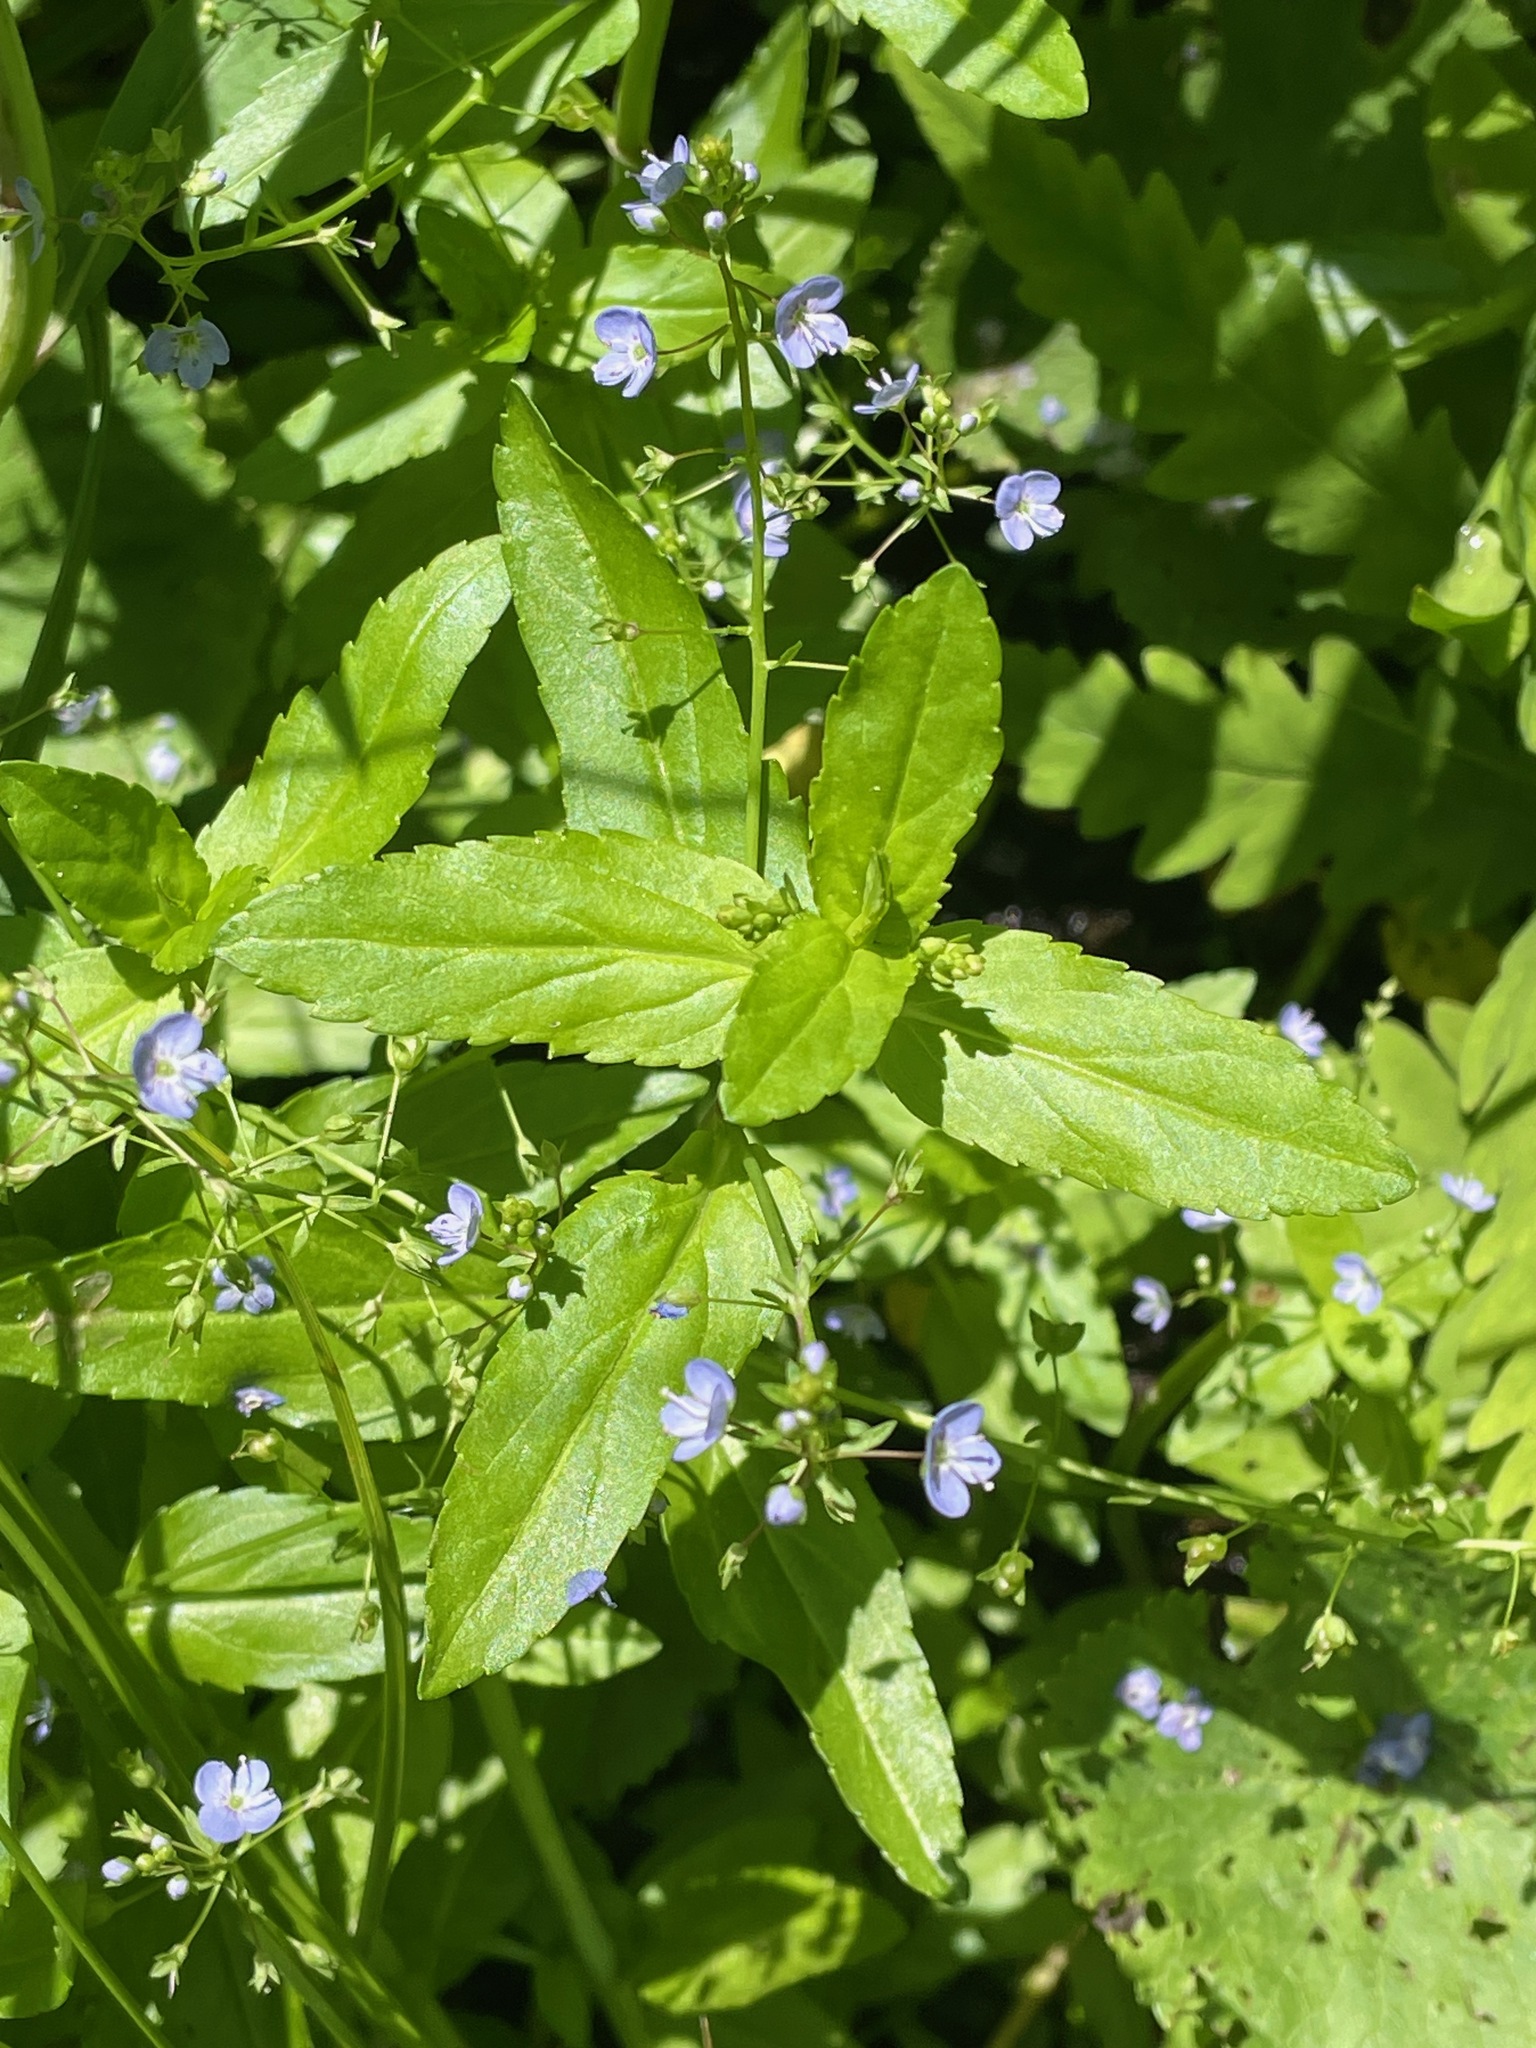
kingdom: Plantae
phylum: Tracheophyta
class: Magnoliopsida
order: Lamiales
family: Plantaginaceae
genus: Veronica
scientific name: Veronica americana
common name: American brooklime
